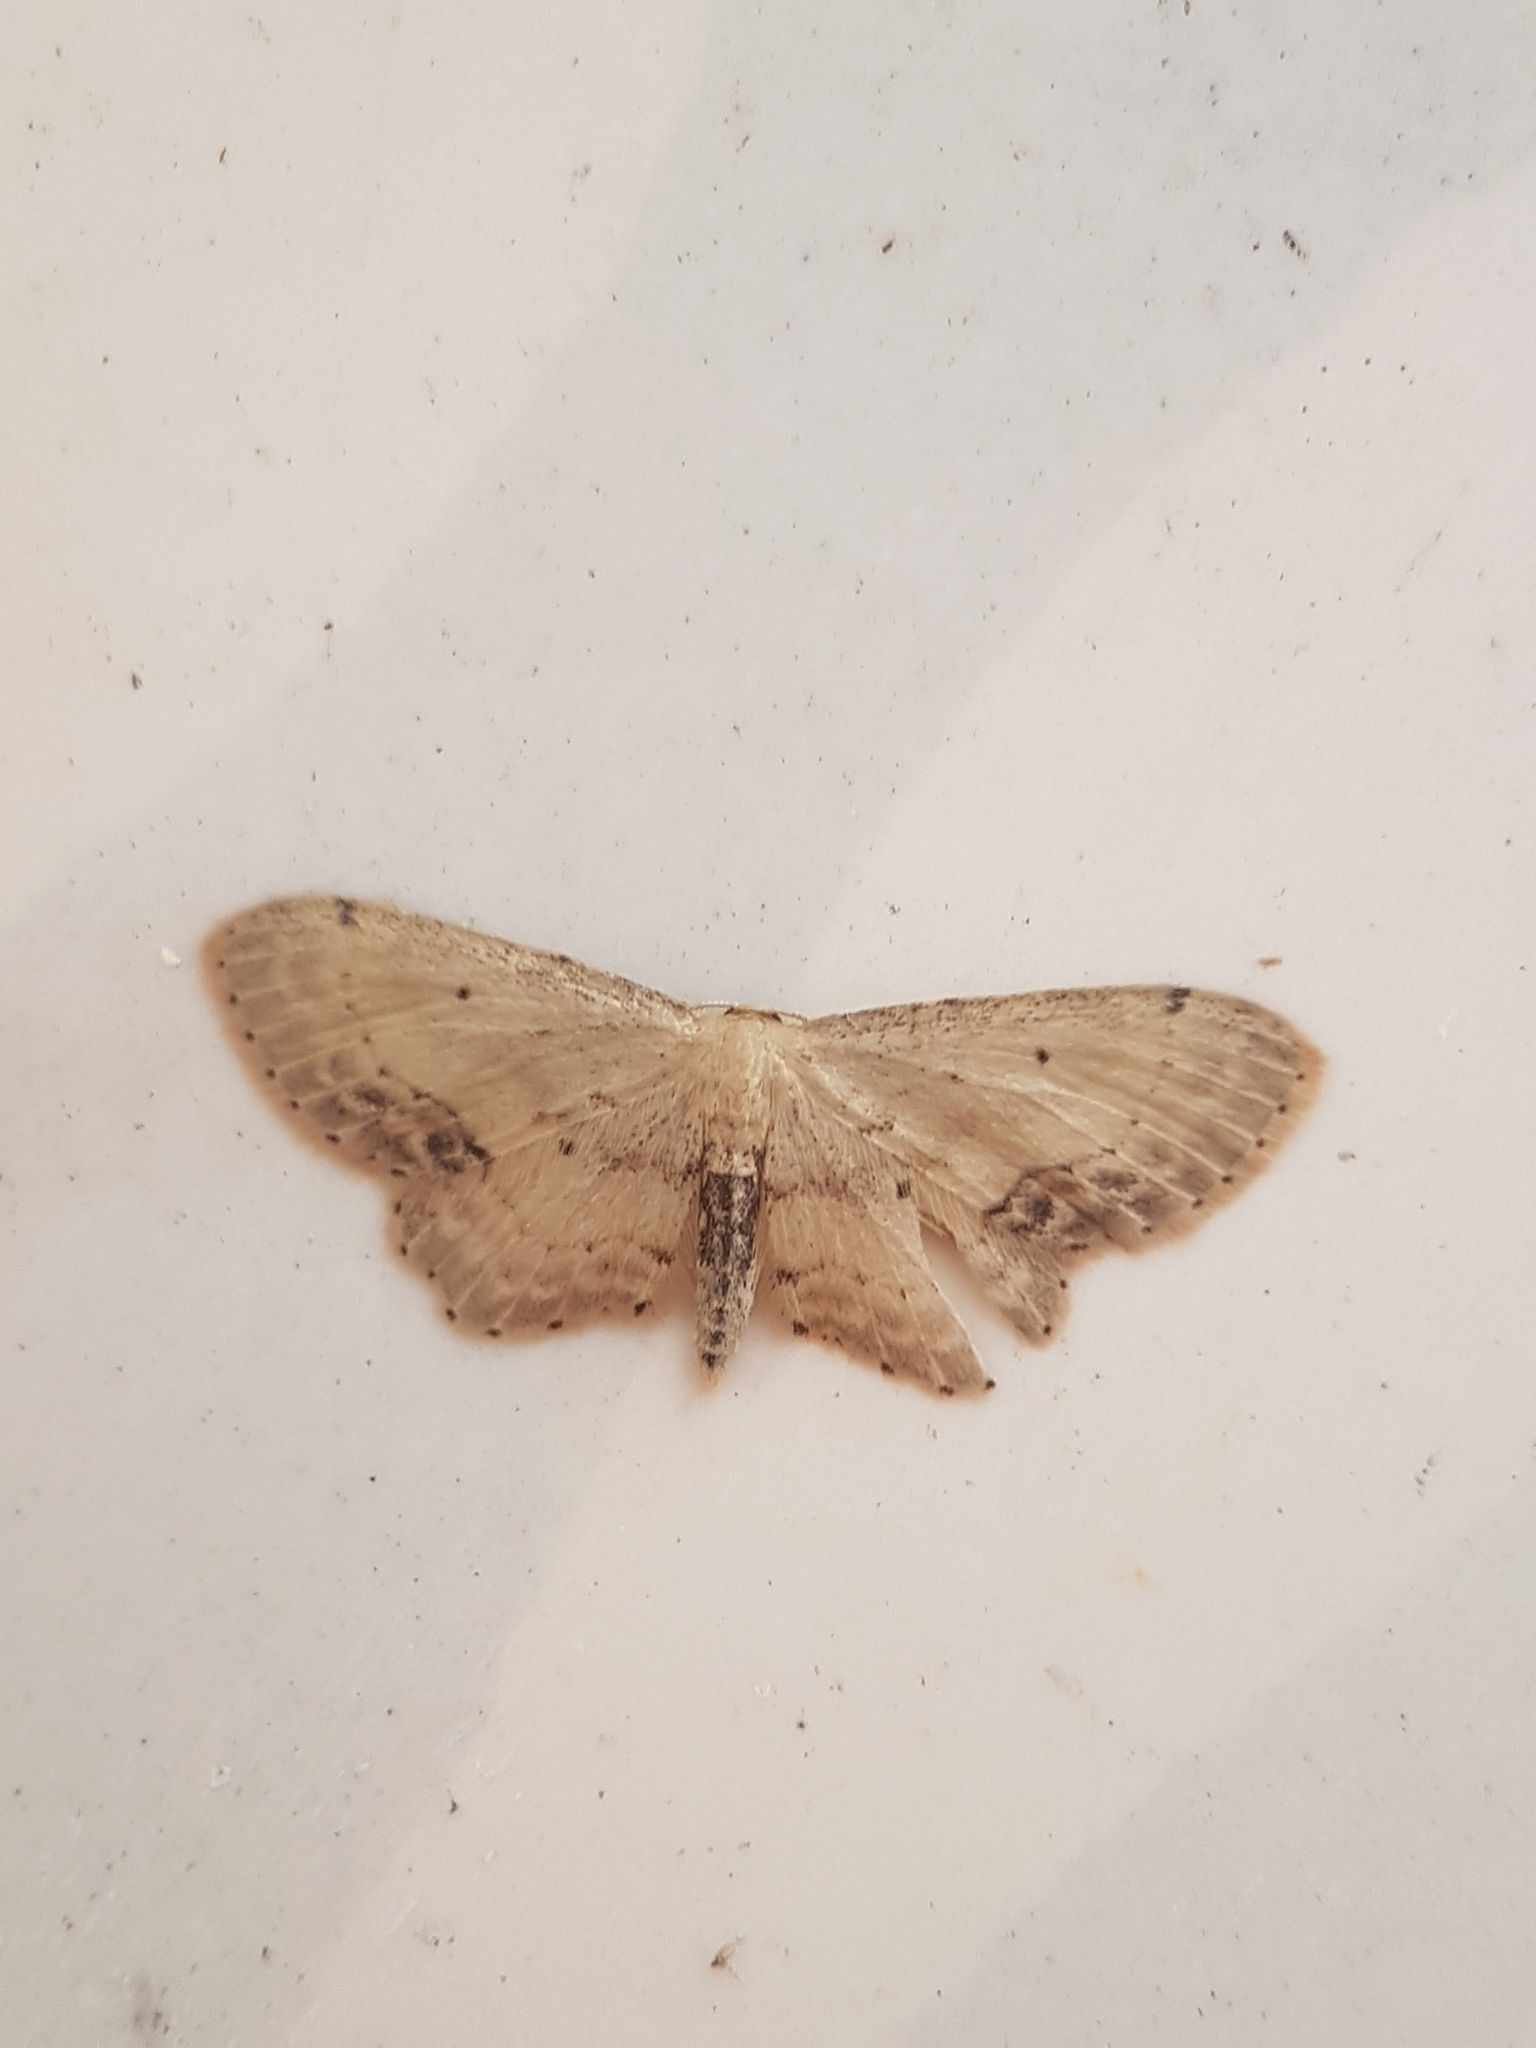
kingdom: Animalia
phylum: Arthropoda
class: Insecta
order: Lepidoptera
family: Geometridae
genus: Idaea
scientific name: Idaea dimidiata
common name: Single-dotted wave
